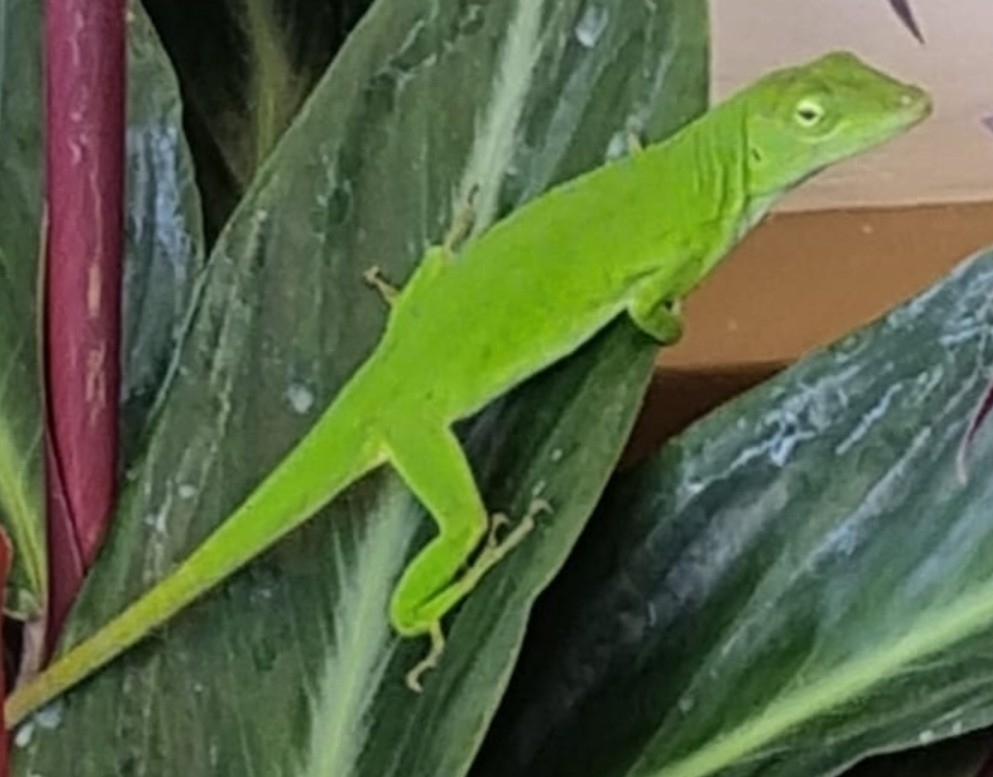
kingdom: Animalia
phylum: Chordata
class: Squamata
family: Dactyloidae
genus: Anolis
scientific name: Anolis biporcatus
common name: Giant green anole
